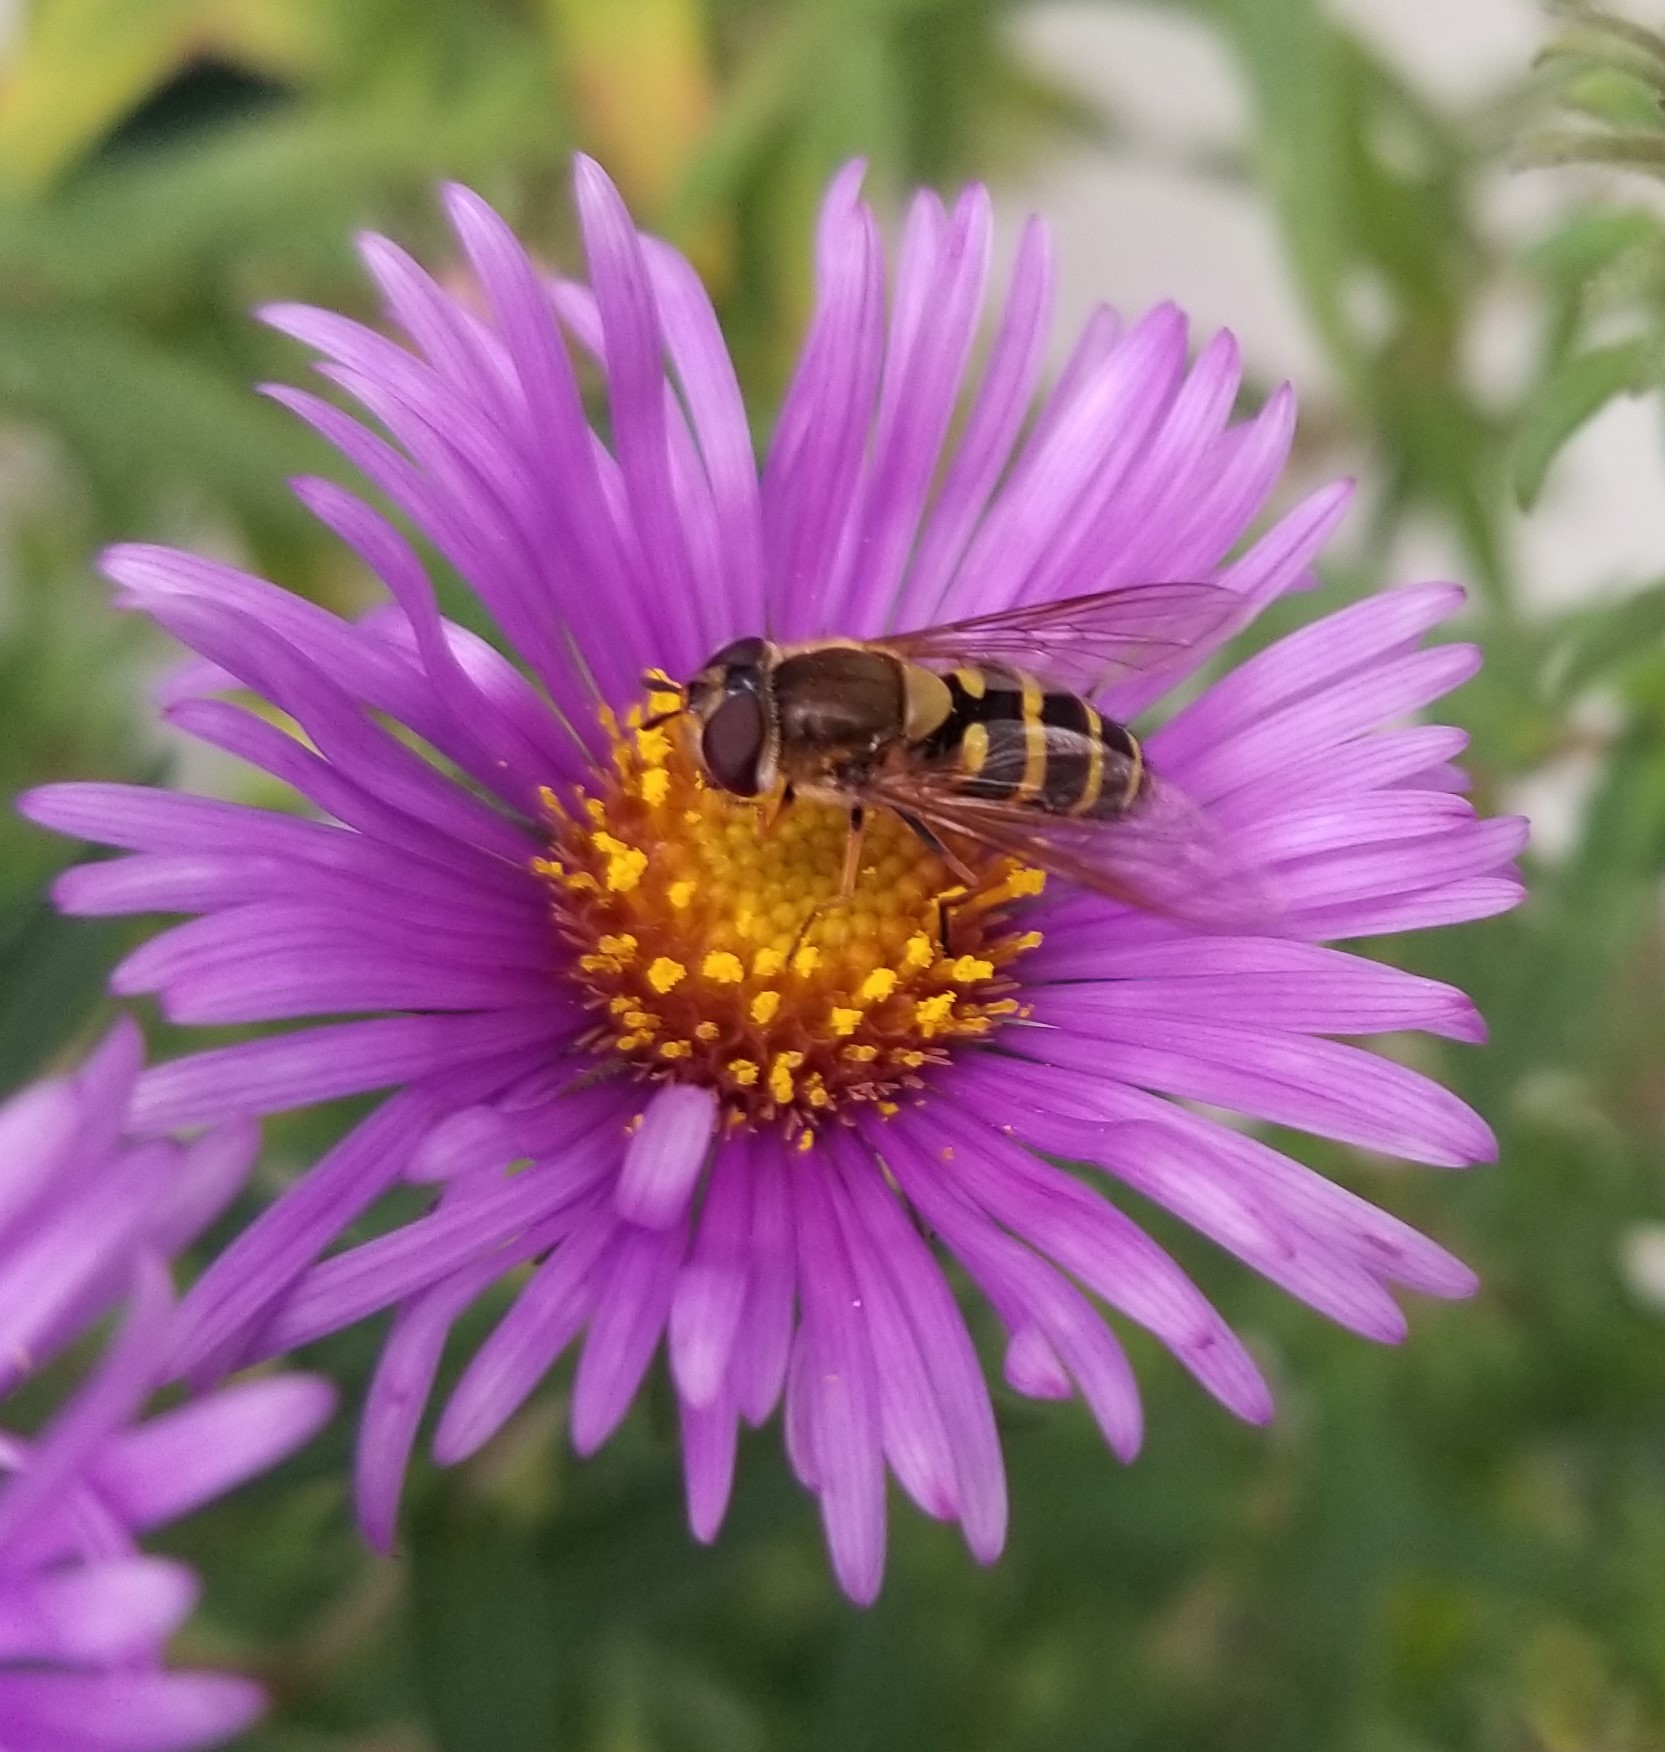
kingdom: Animalia
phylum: Arthropoda
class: Insecta
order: Diptera
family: Syrphidae
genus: Syrphus
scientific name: Syrphus
